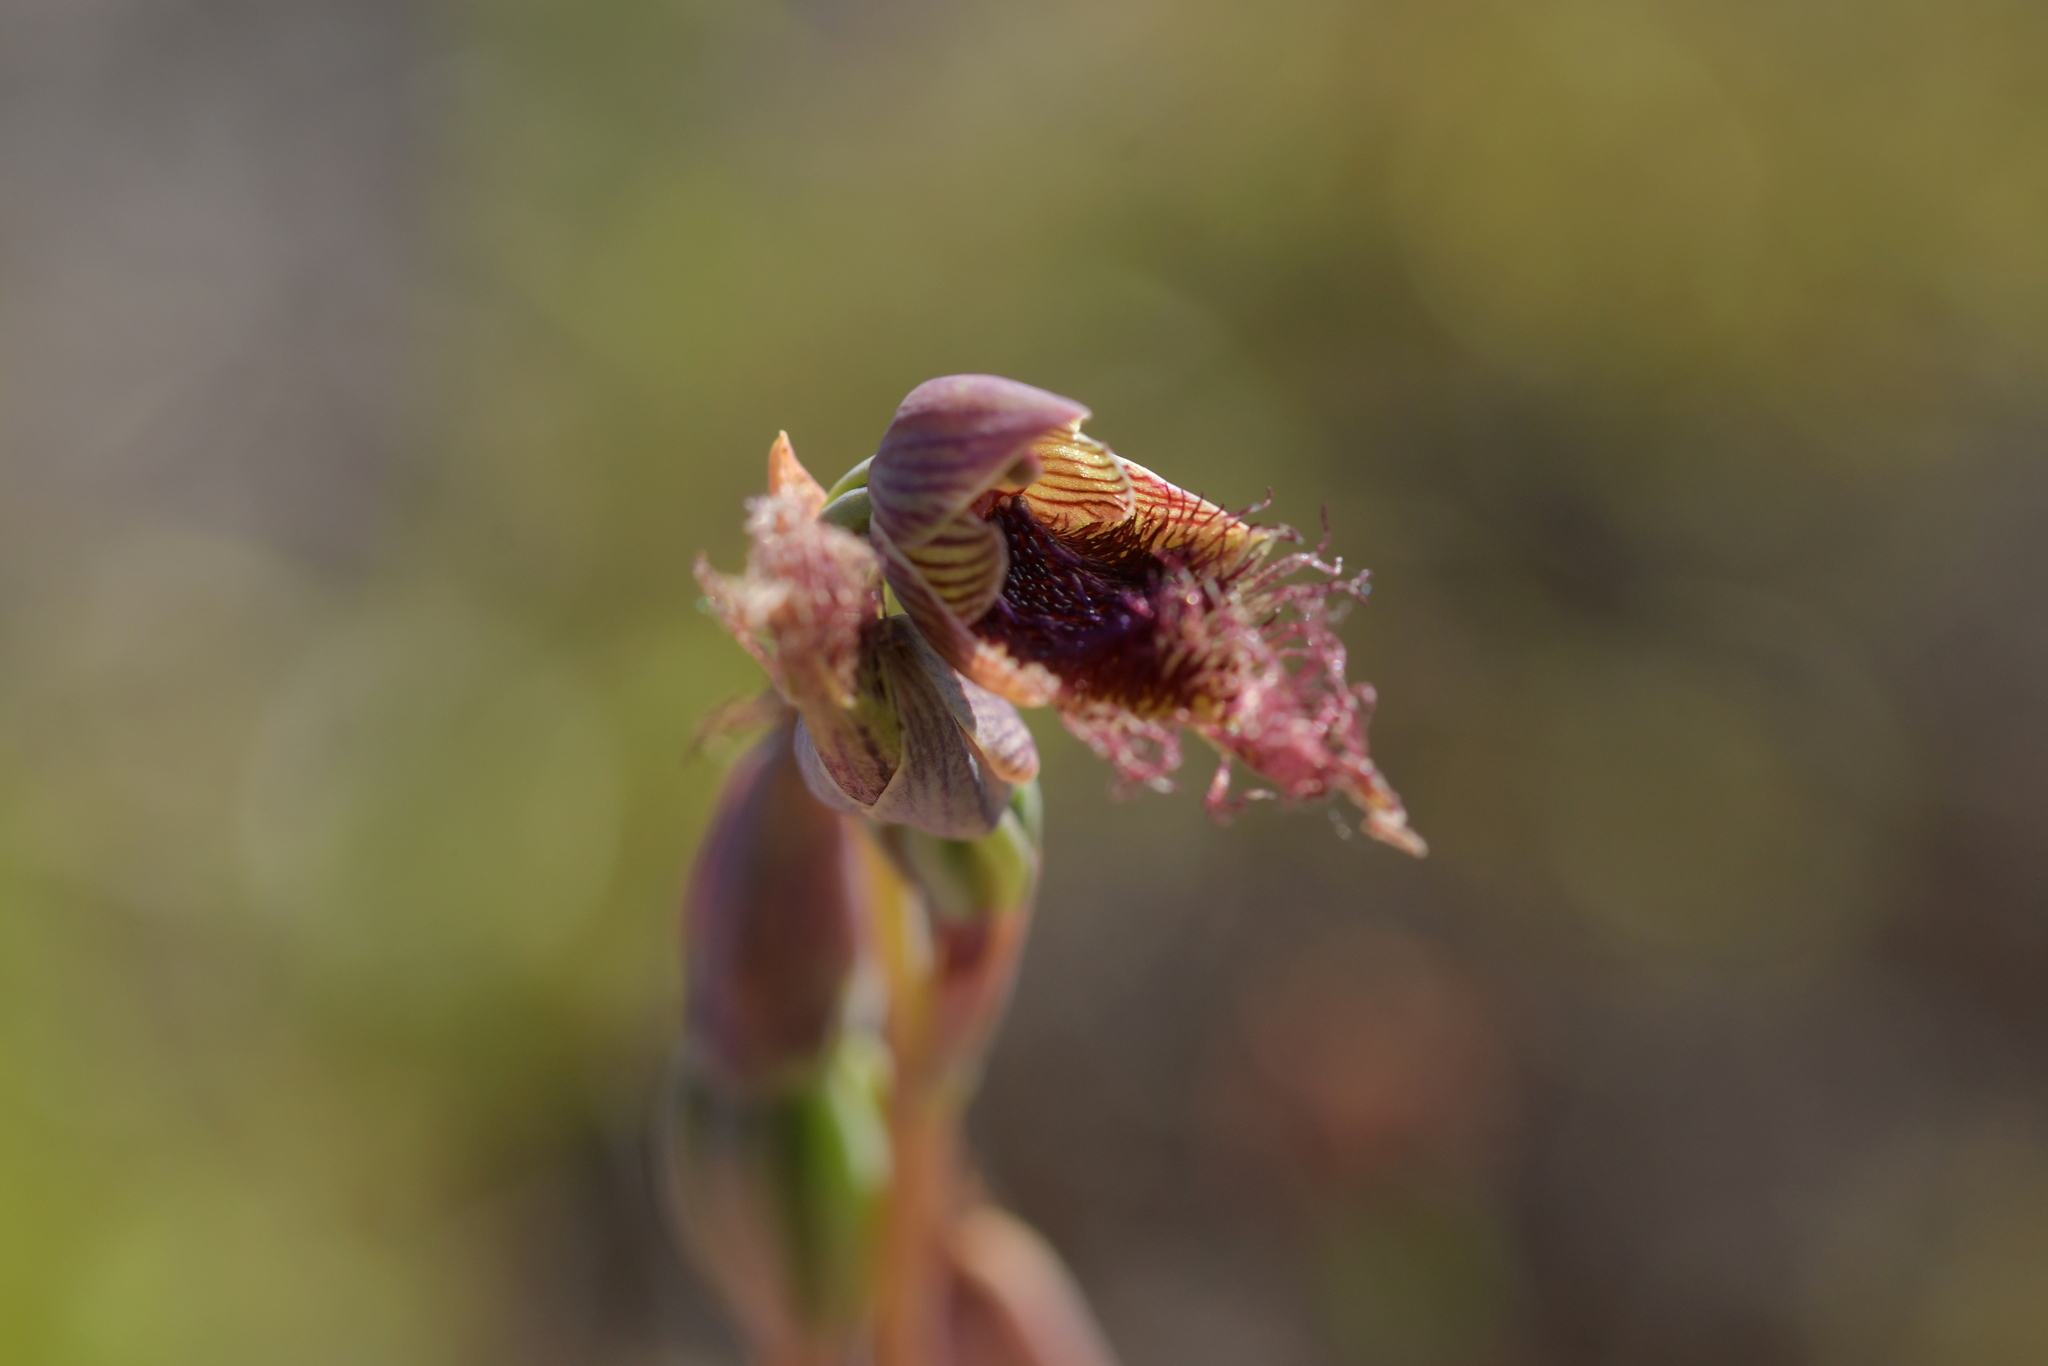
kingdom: Plantae
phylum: Tracheophyta
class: Liliopsida
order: Asparagales
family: Orchidaceae
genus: Calochilus
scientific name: Calochilus robertsonii
